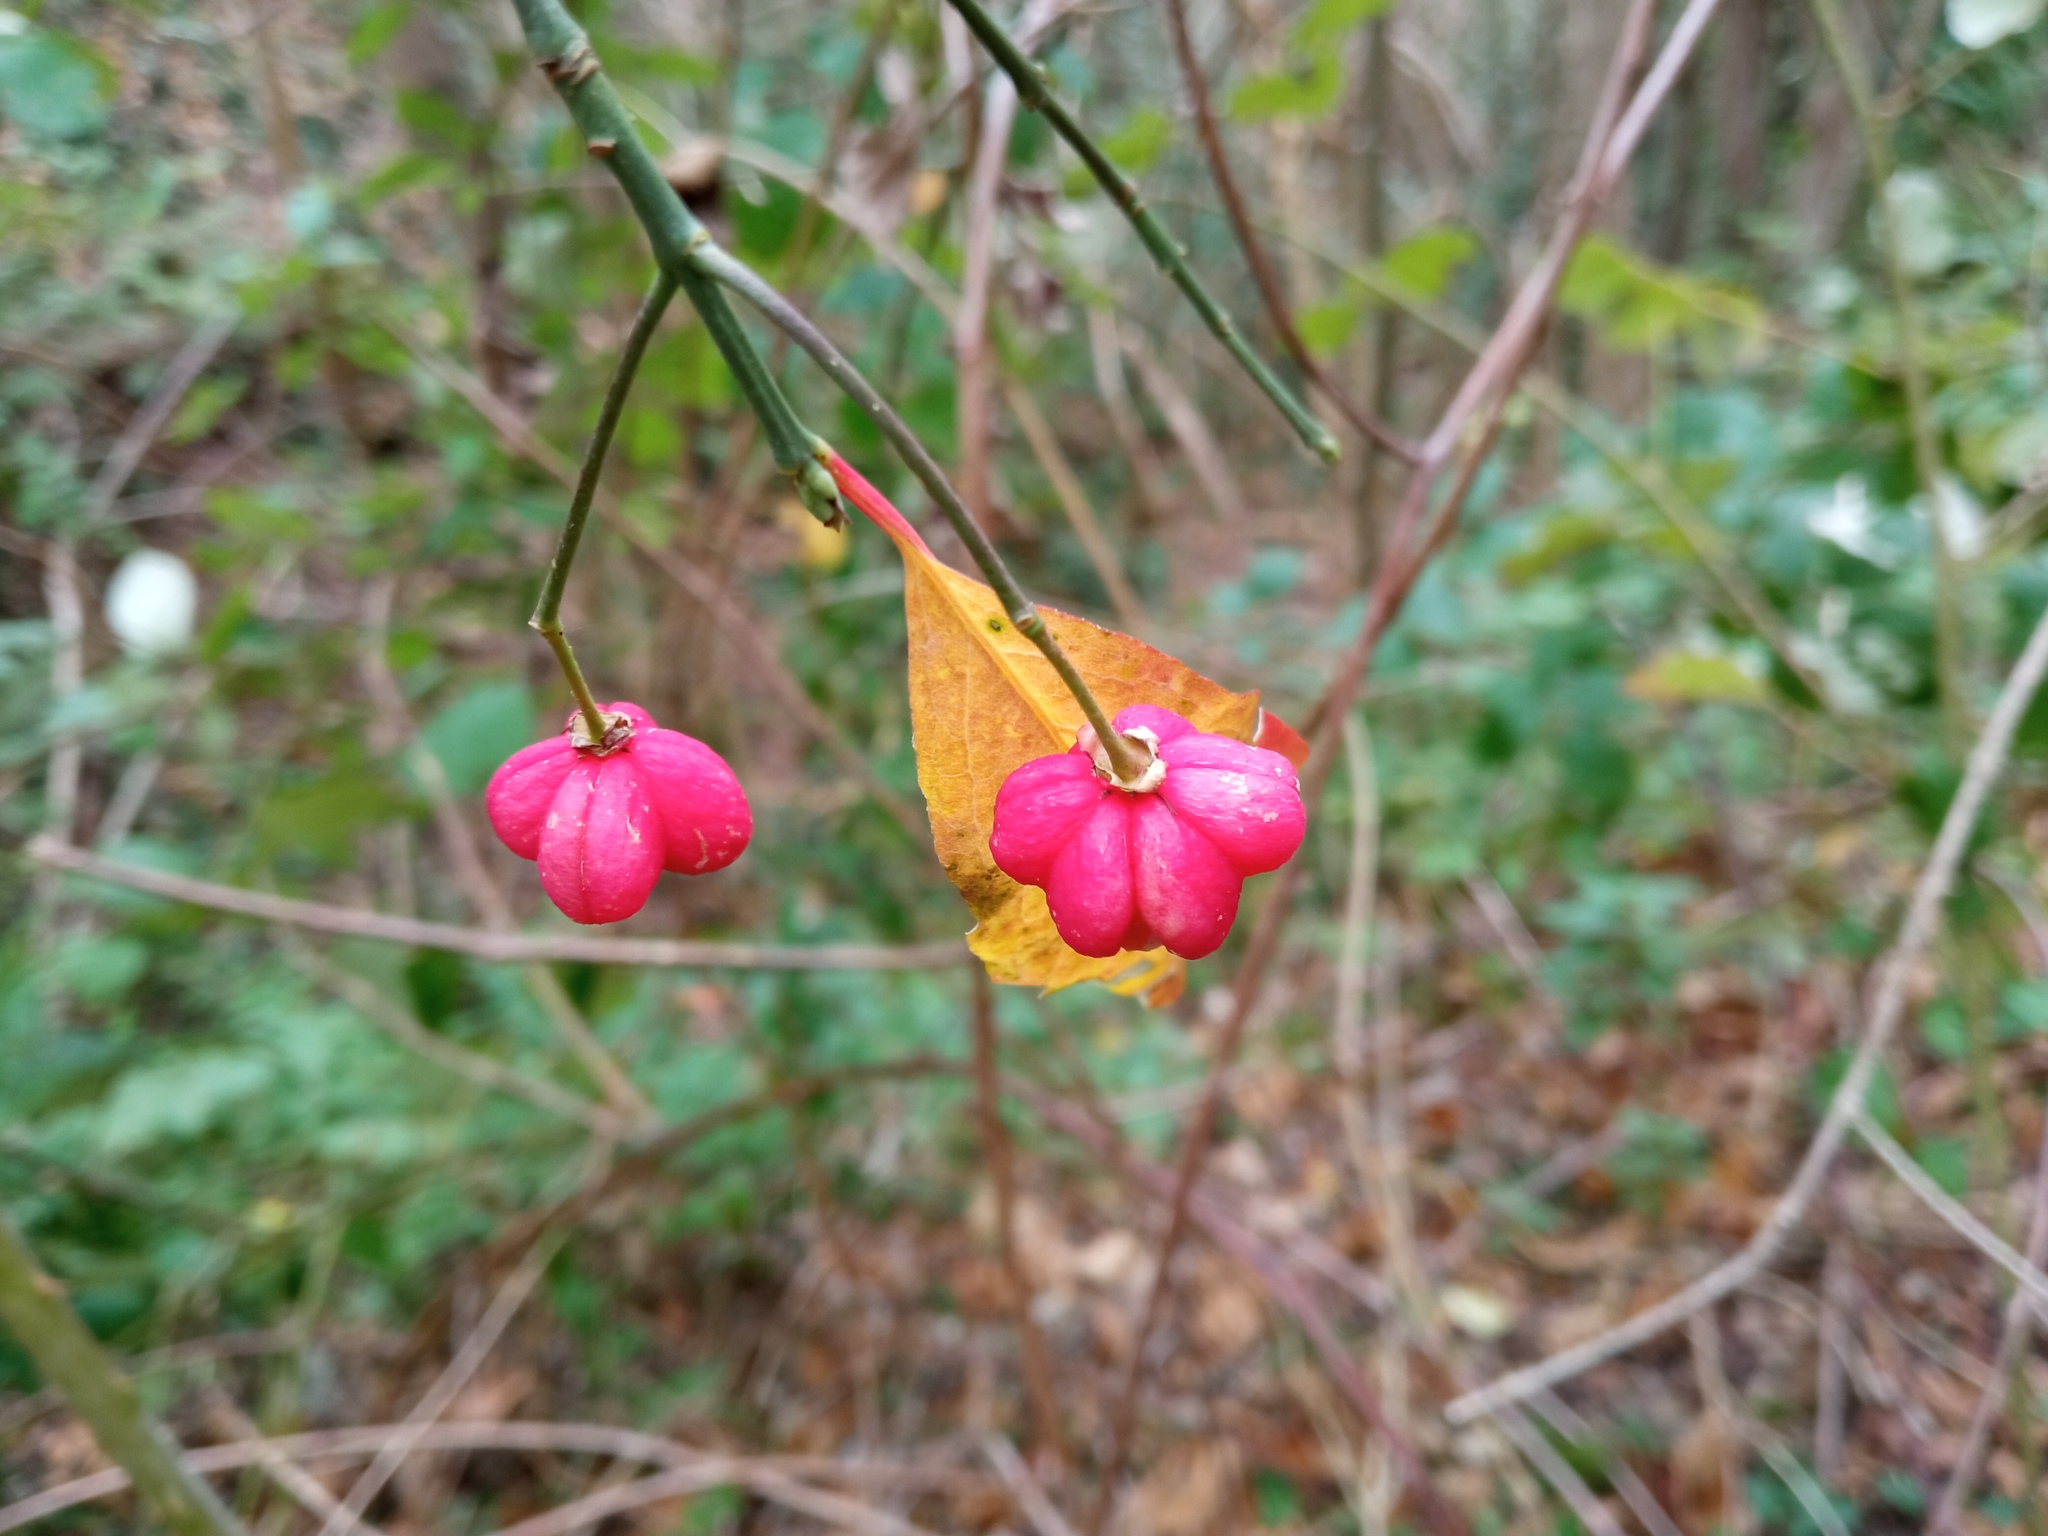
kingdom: Plantae
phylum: Tracheophyta
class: Magnoliopsida
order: Celastrales
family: Celastraceae
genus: Euonymus
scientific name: Euonymus europaeus
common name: Spindle
